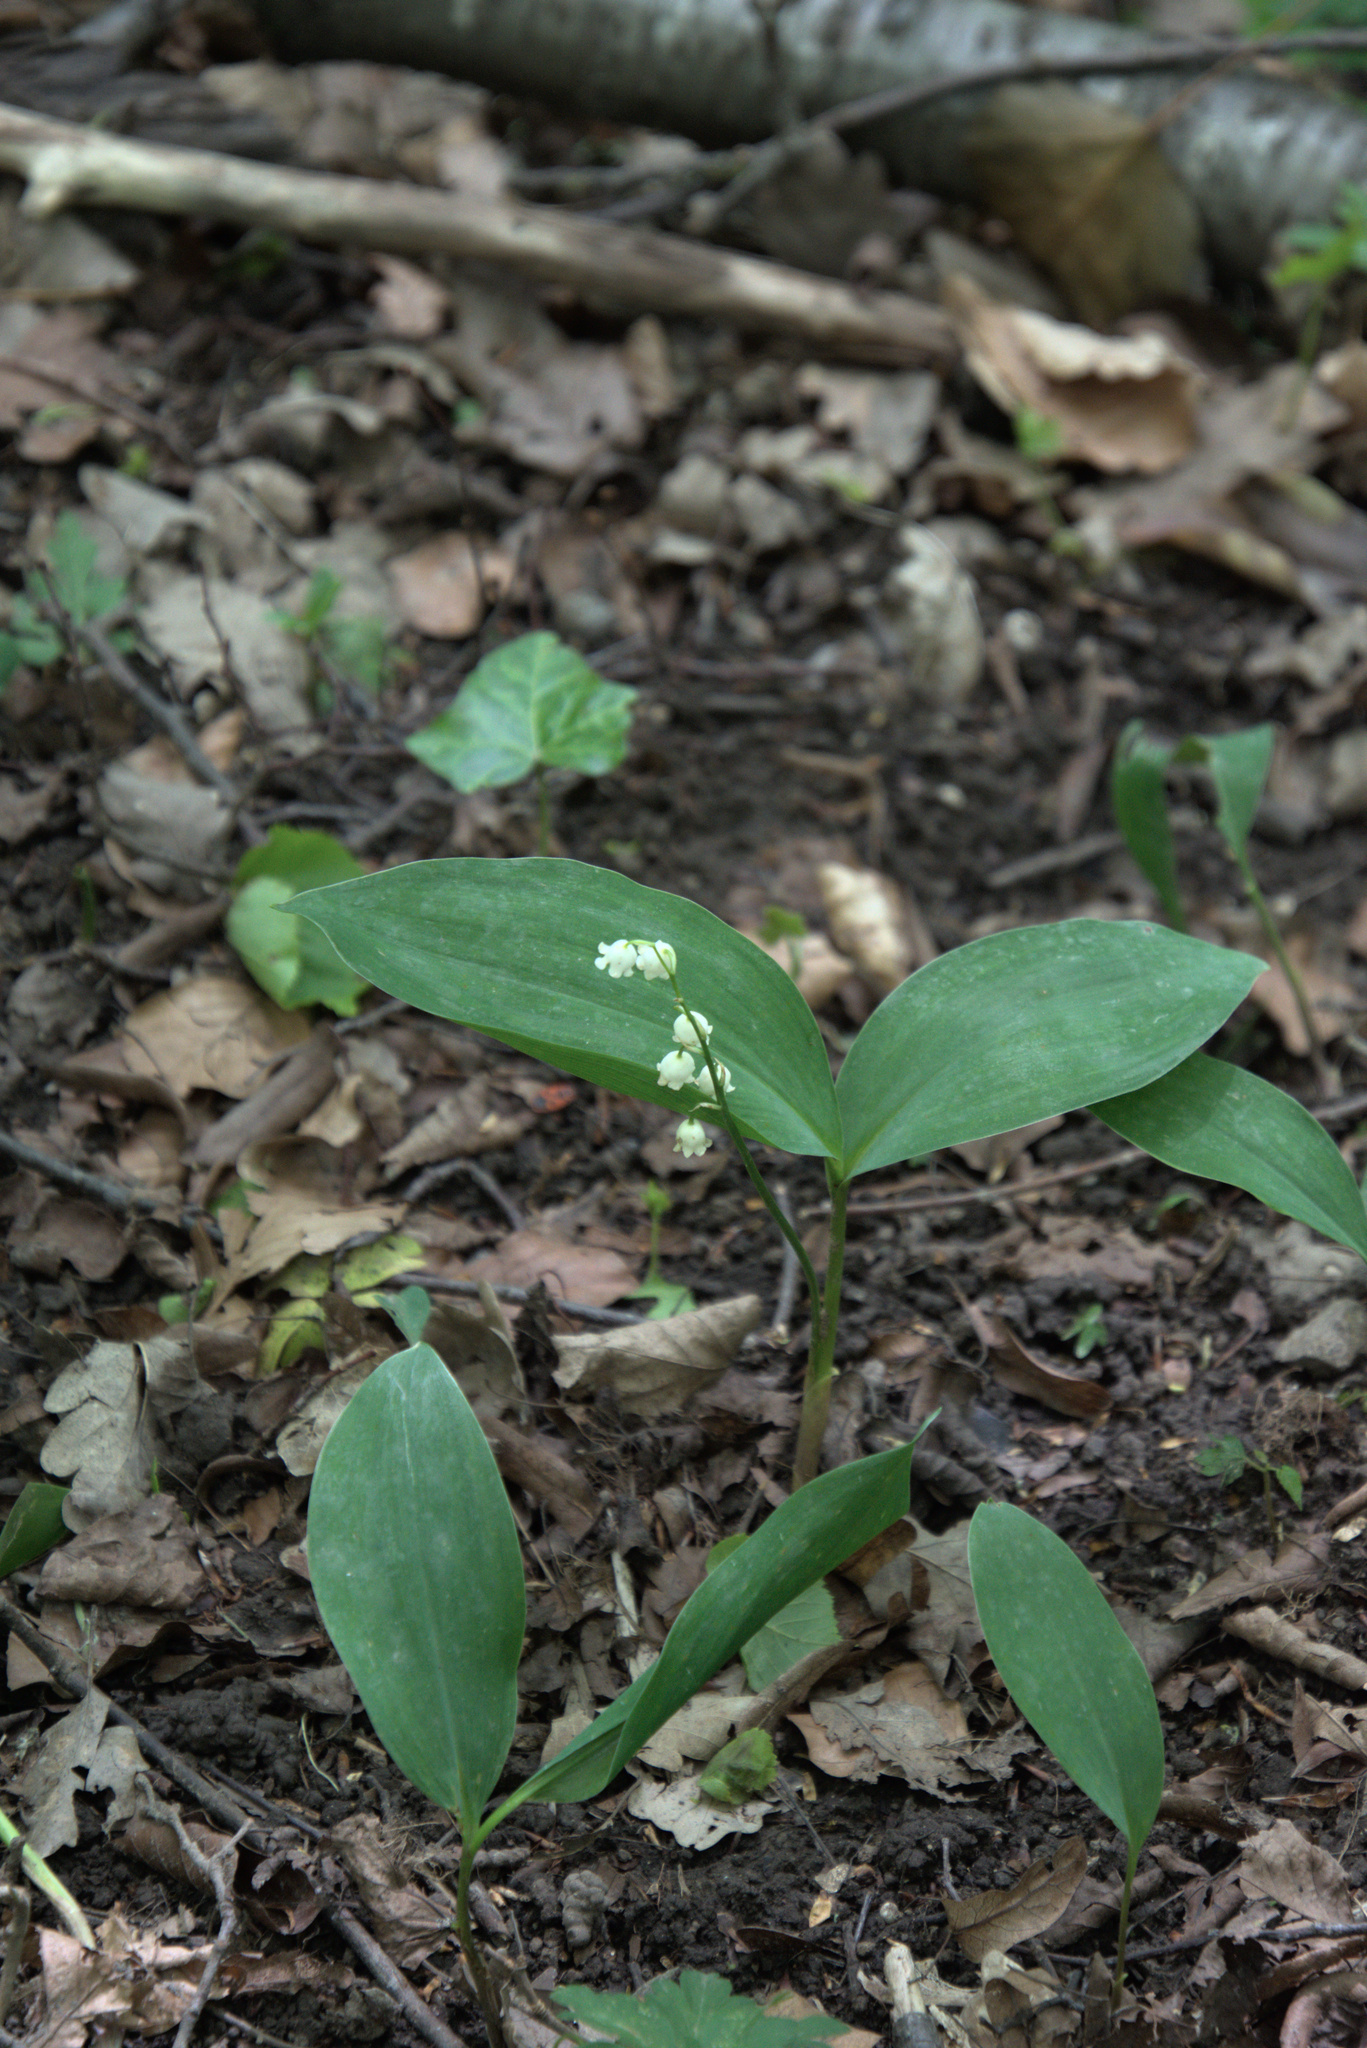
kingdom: Plantae
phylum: Tracheophyta
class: Liliopsida
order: Asparagales
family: Asparagaceae
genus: Convallaria
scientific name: Convallaria majalis
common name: Lily-of-the-valley
